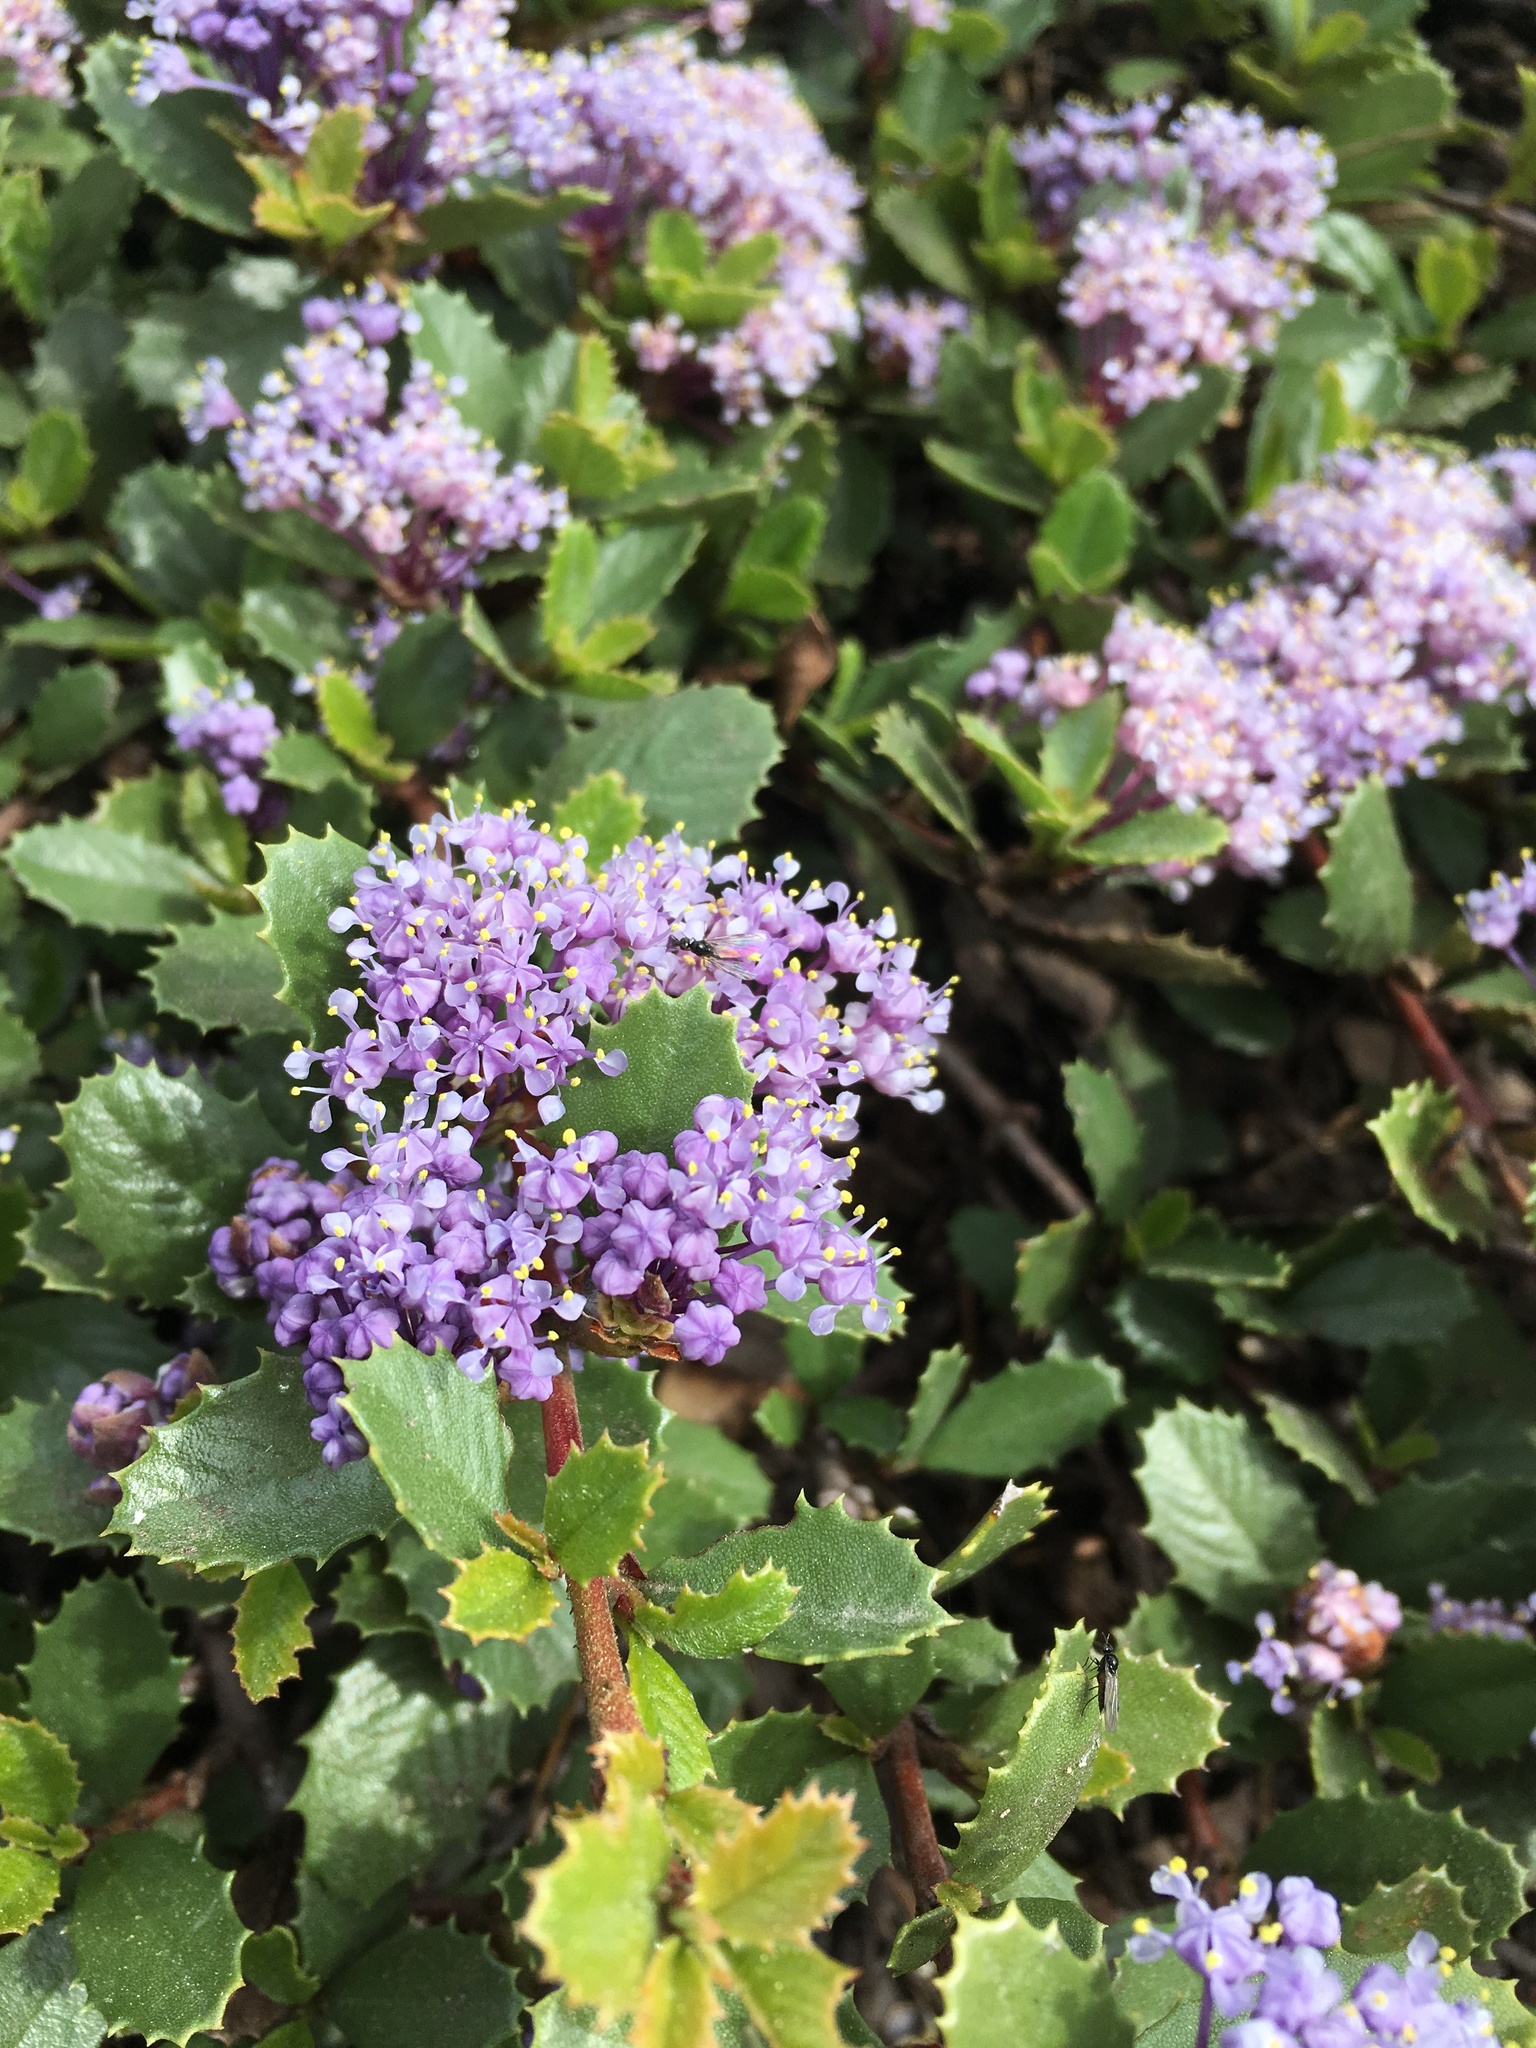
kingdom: Plantae
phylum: Tracheophyta
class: Magnoliopsida
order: Rosales
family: Rhamnaceae
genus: Ceanothus
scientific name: Ceanothus prostratus
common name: Mahala-mat
